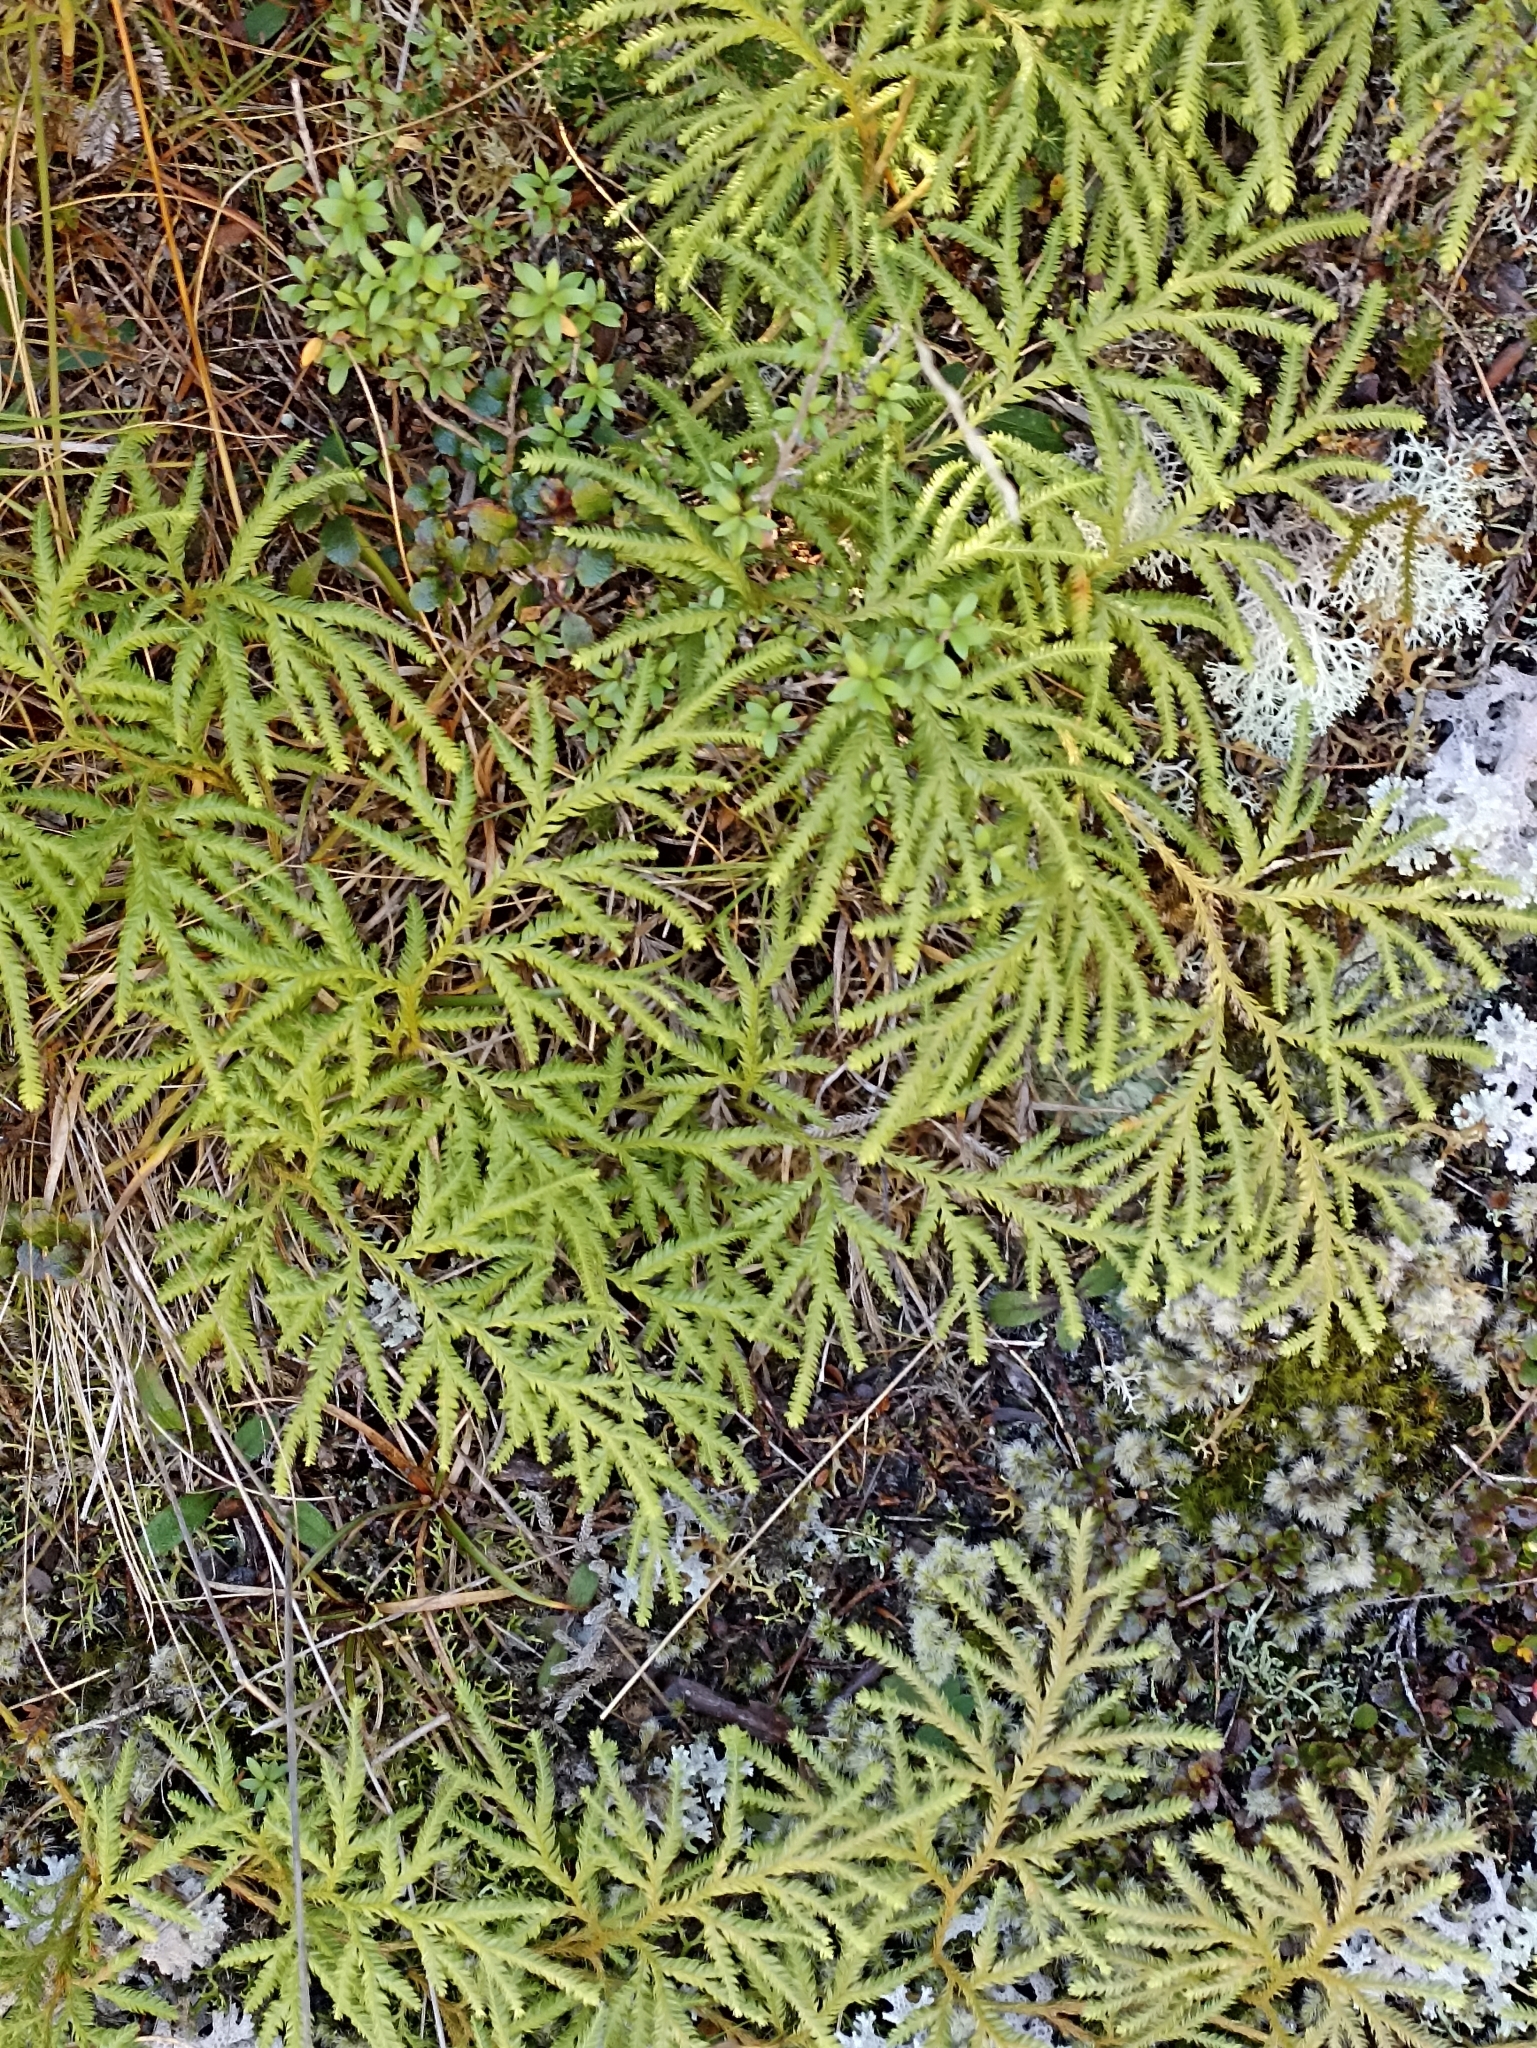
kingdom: Plantae
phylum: Tracheophyta
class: Lycopodiopsida
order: Lycopodiales
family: Lycopodiaceae
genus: Lycopodium
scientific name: Lycopodium volubile
